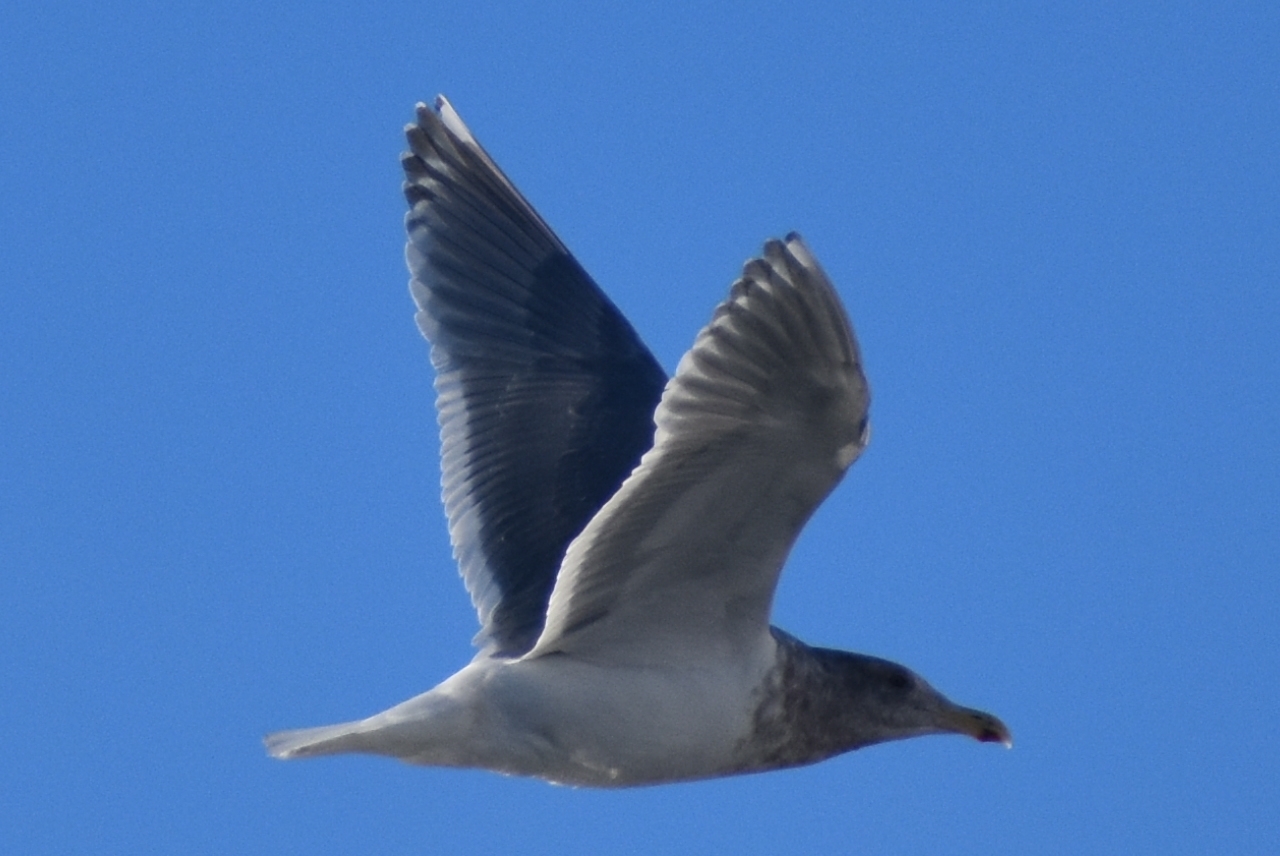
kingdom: Animalia
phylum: Chordata
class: Aves
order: Charadriiformes
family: Laridae
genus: Larus
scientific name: Larus glaucescens
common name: Glaucous-winged gull
